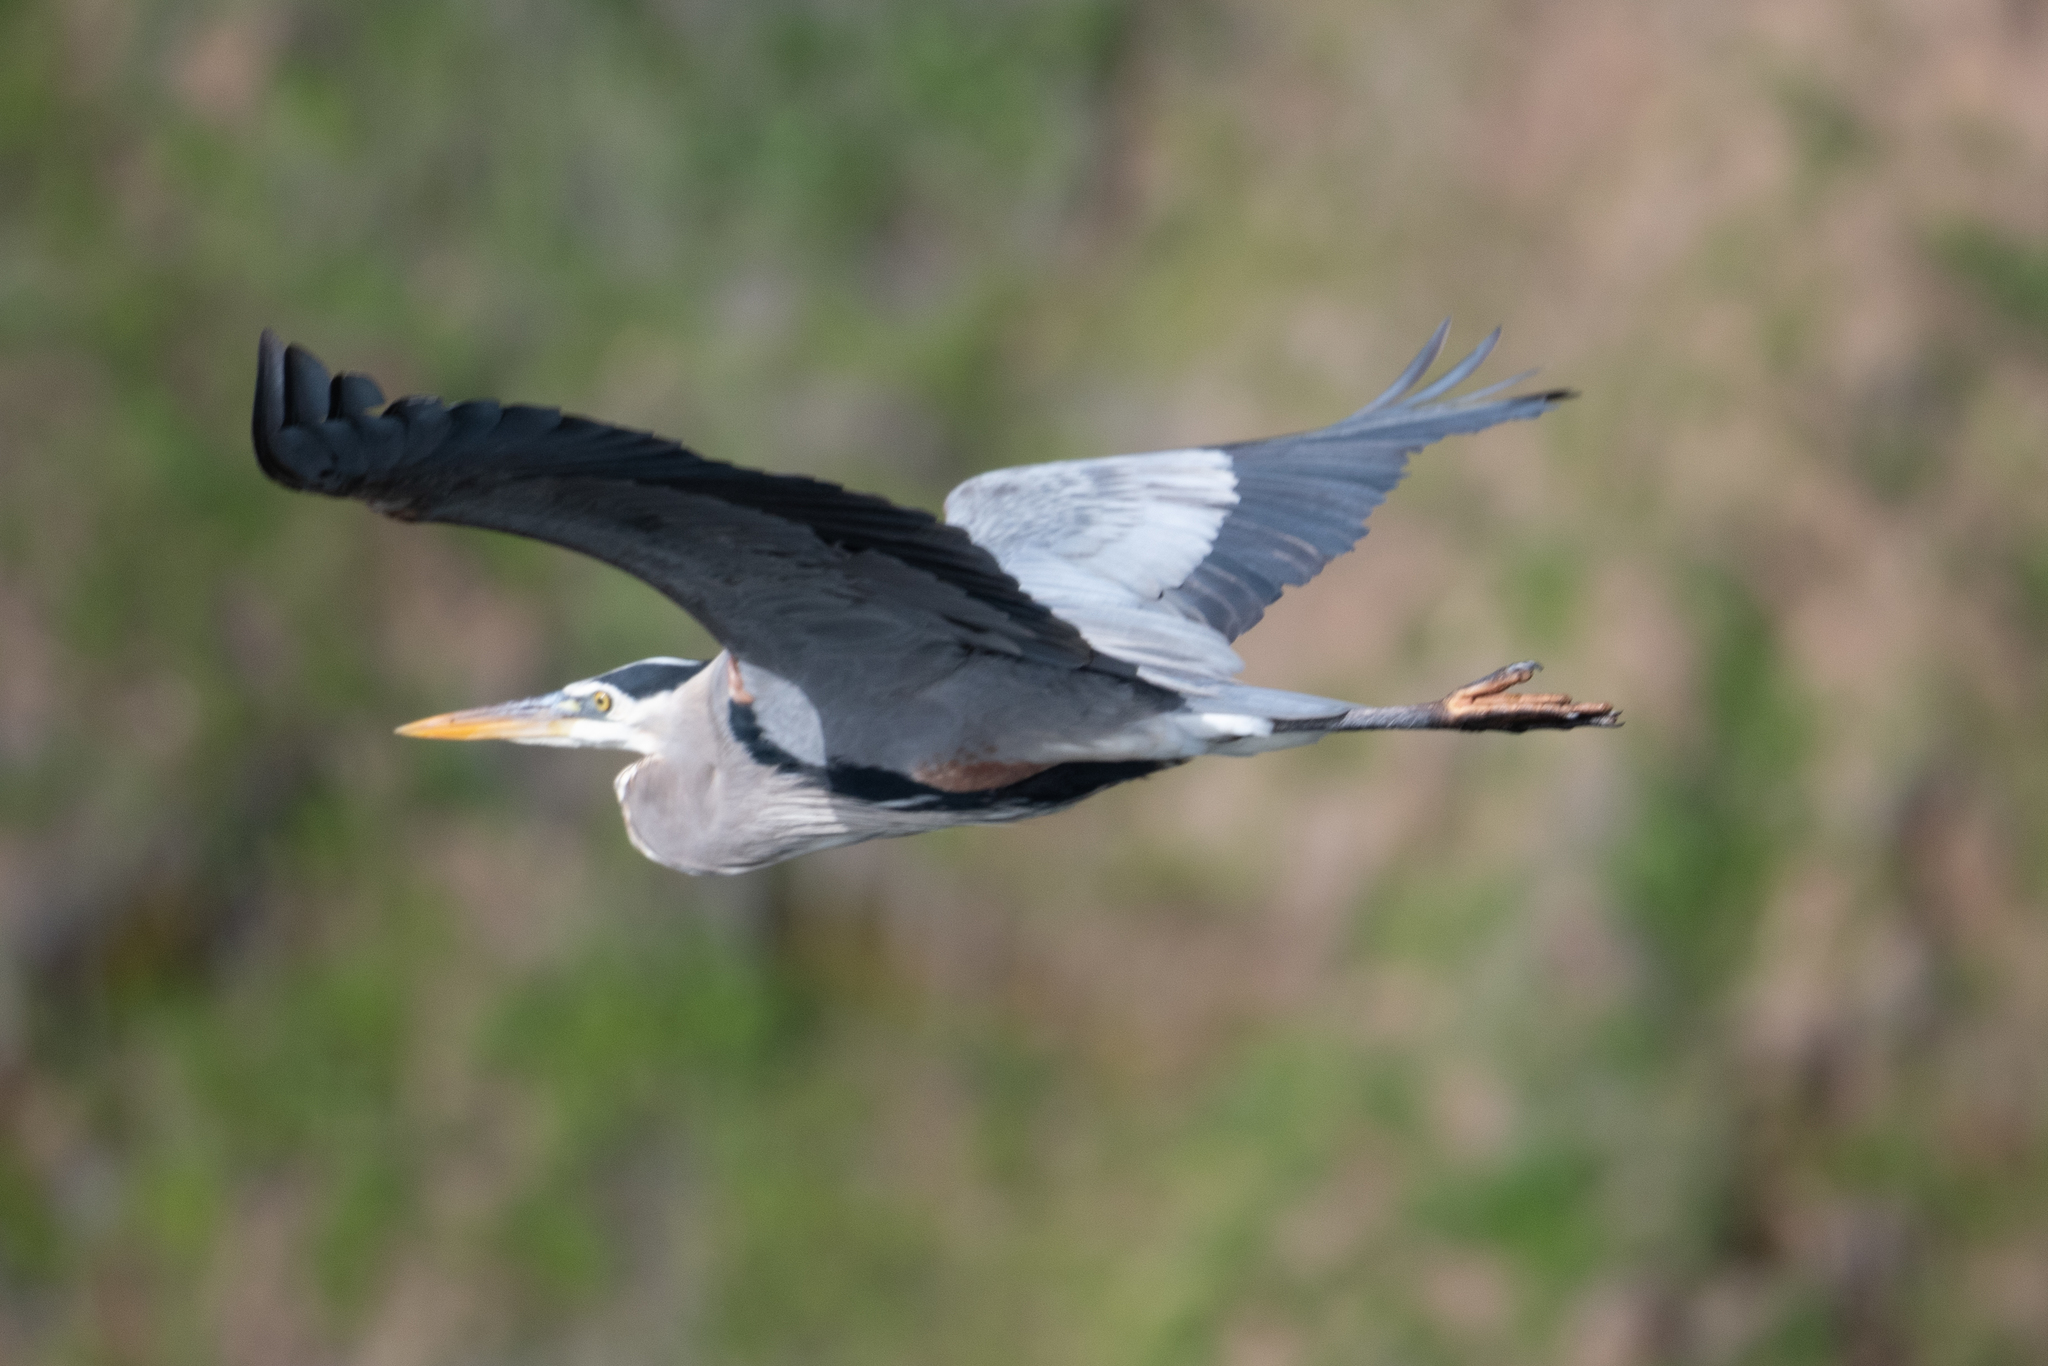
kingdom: Animalia
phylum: Chordata
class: Aves
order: Pelecaniformes
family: Ardeidae
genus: Ardea
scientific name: Ardea herodias
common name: Great blue heron
